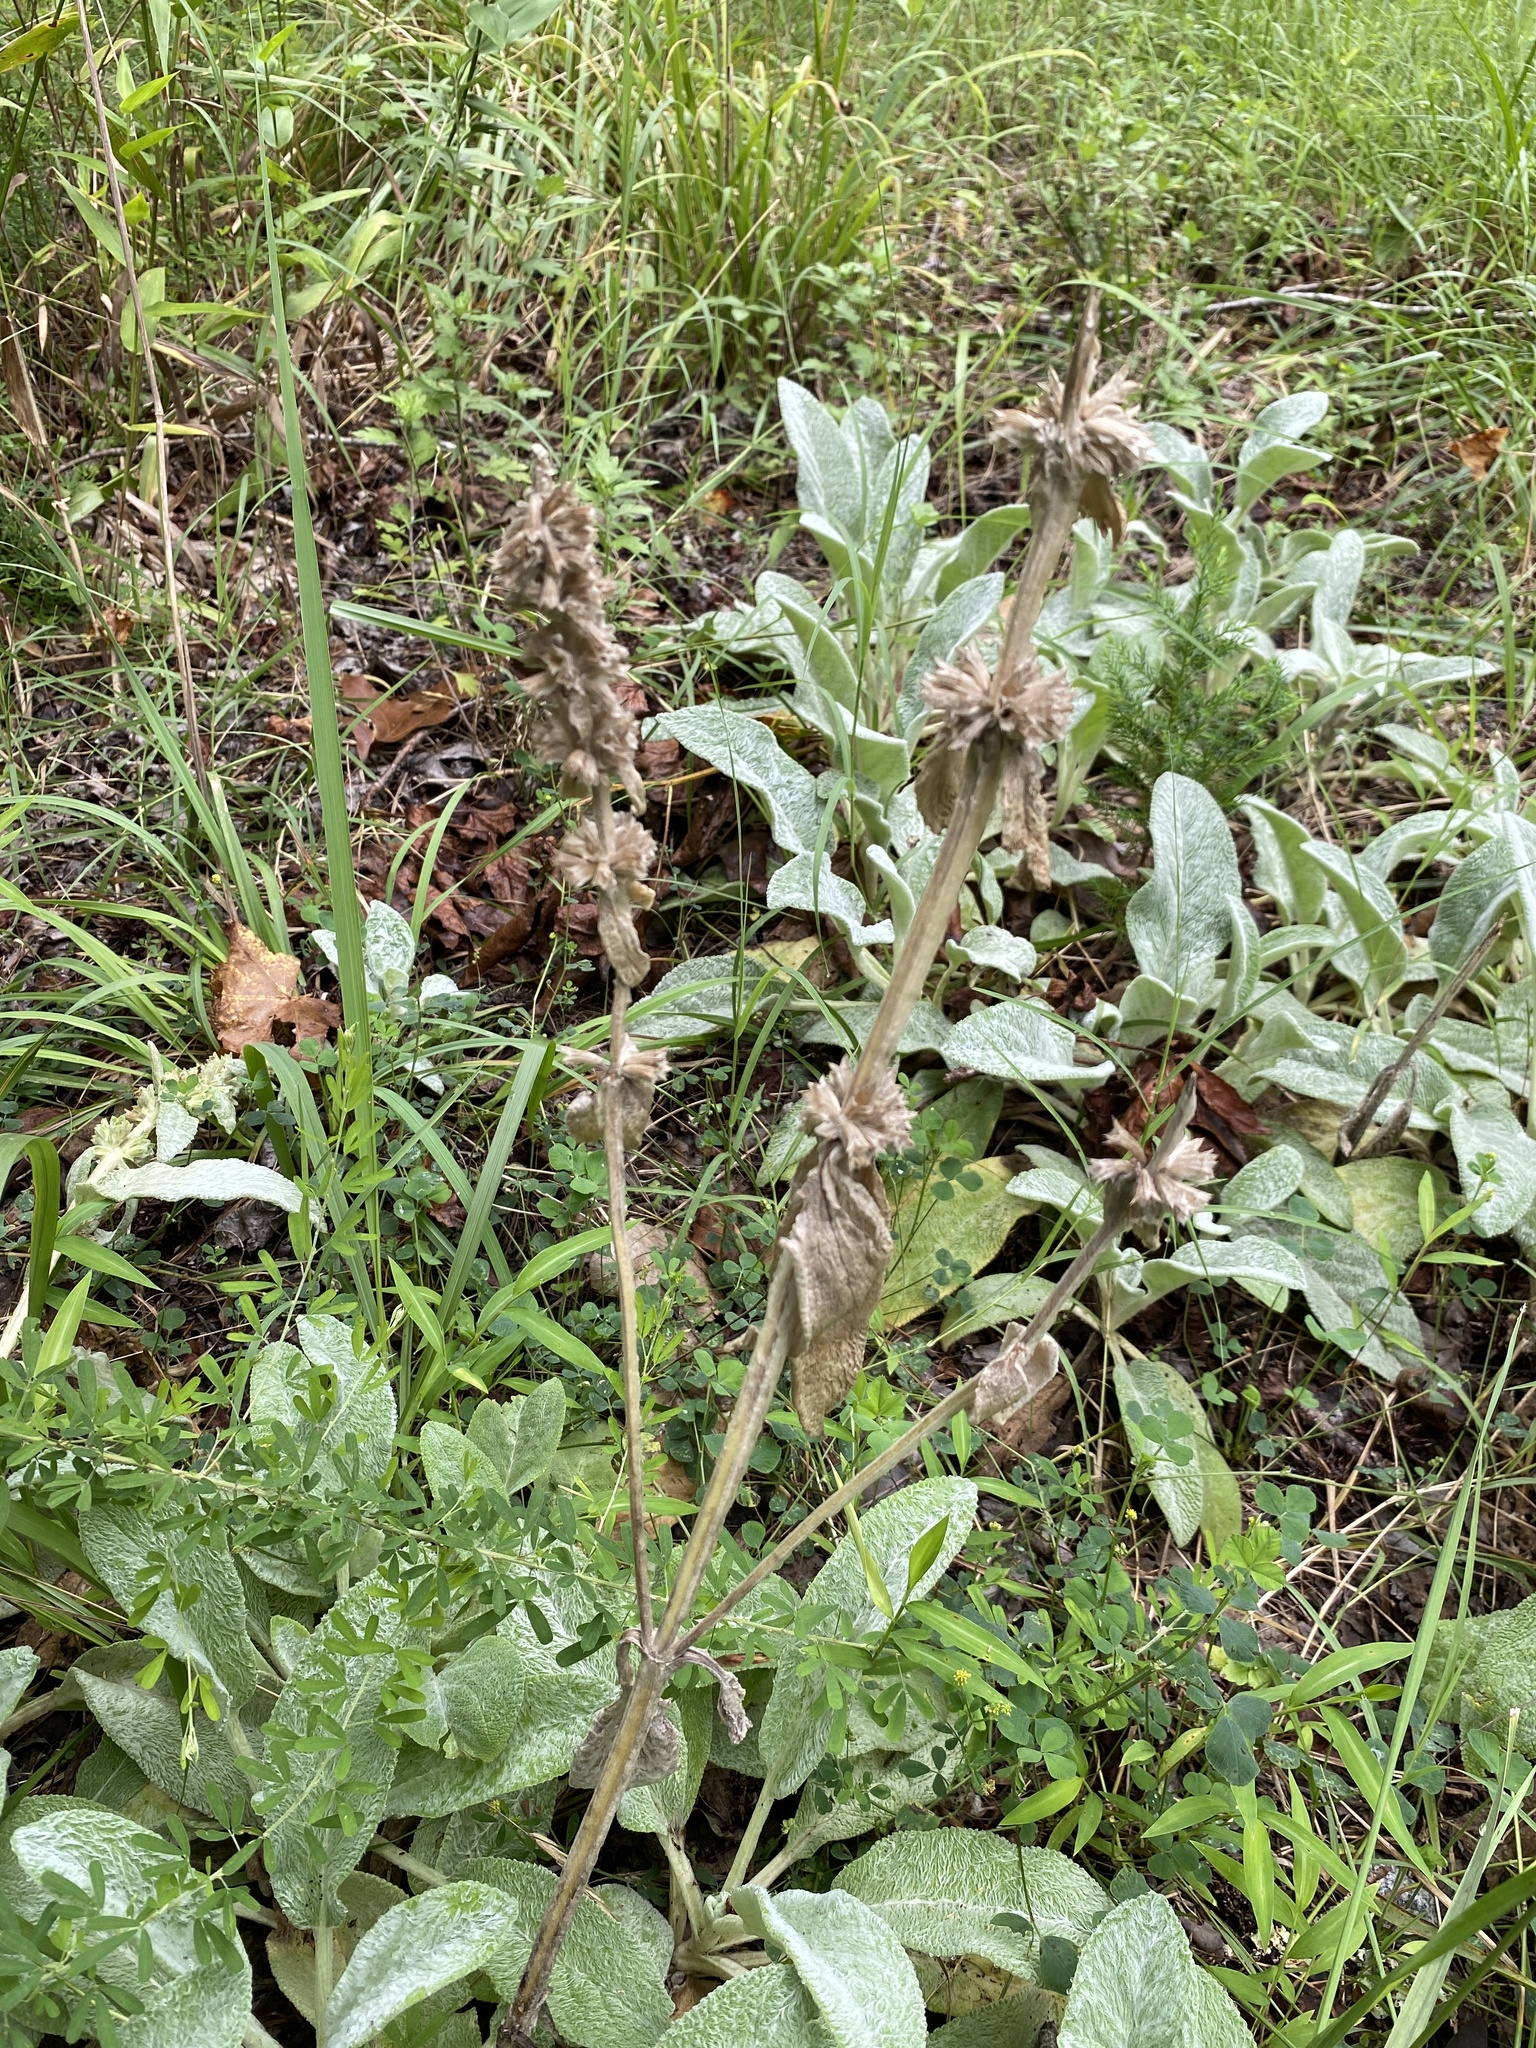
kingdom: Plantae
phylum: Tracheophyta
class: Magnoliopsida
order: Lamiales
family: Lamiaceae
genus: Stachys
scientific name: Stachys byzantina
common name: Lamb's-ear
